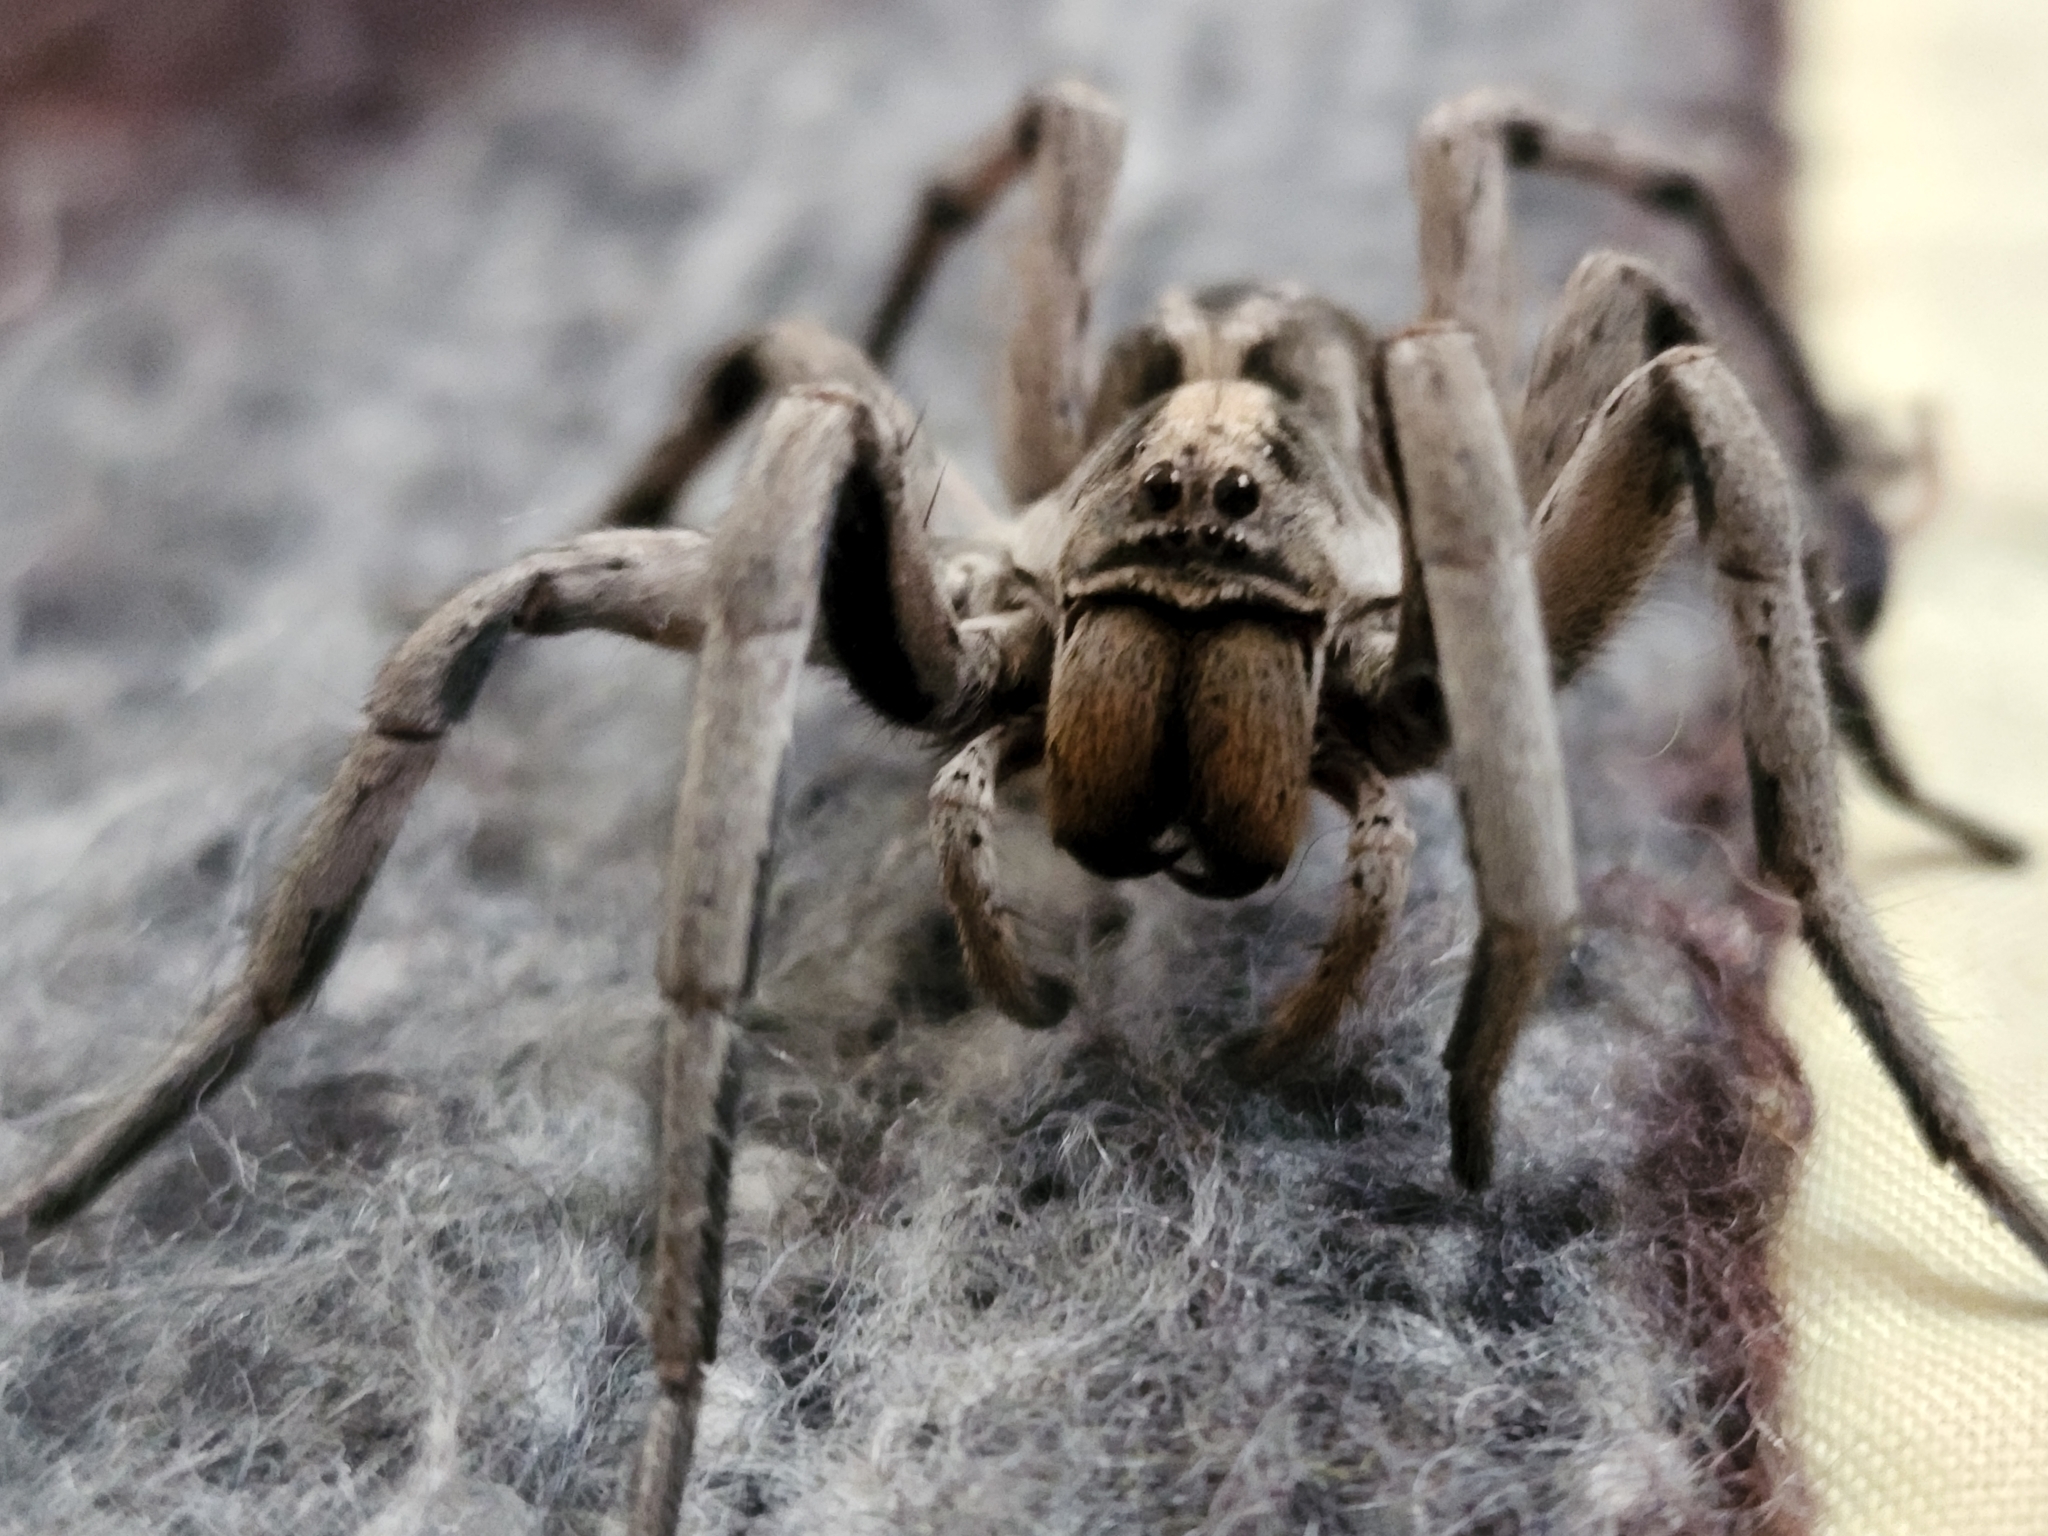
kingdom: Animalia
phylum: Arthropoda
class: Arachnida
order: Araneae
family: Lycosidae
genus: Schizocosa
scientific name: Schizocosa malitiosa
